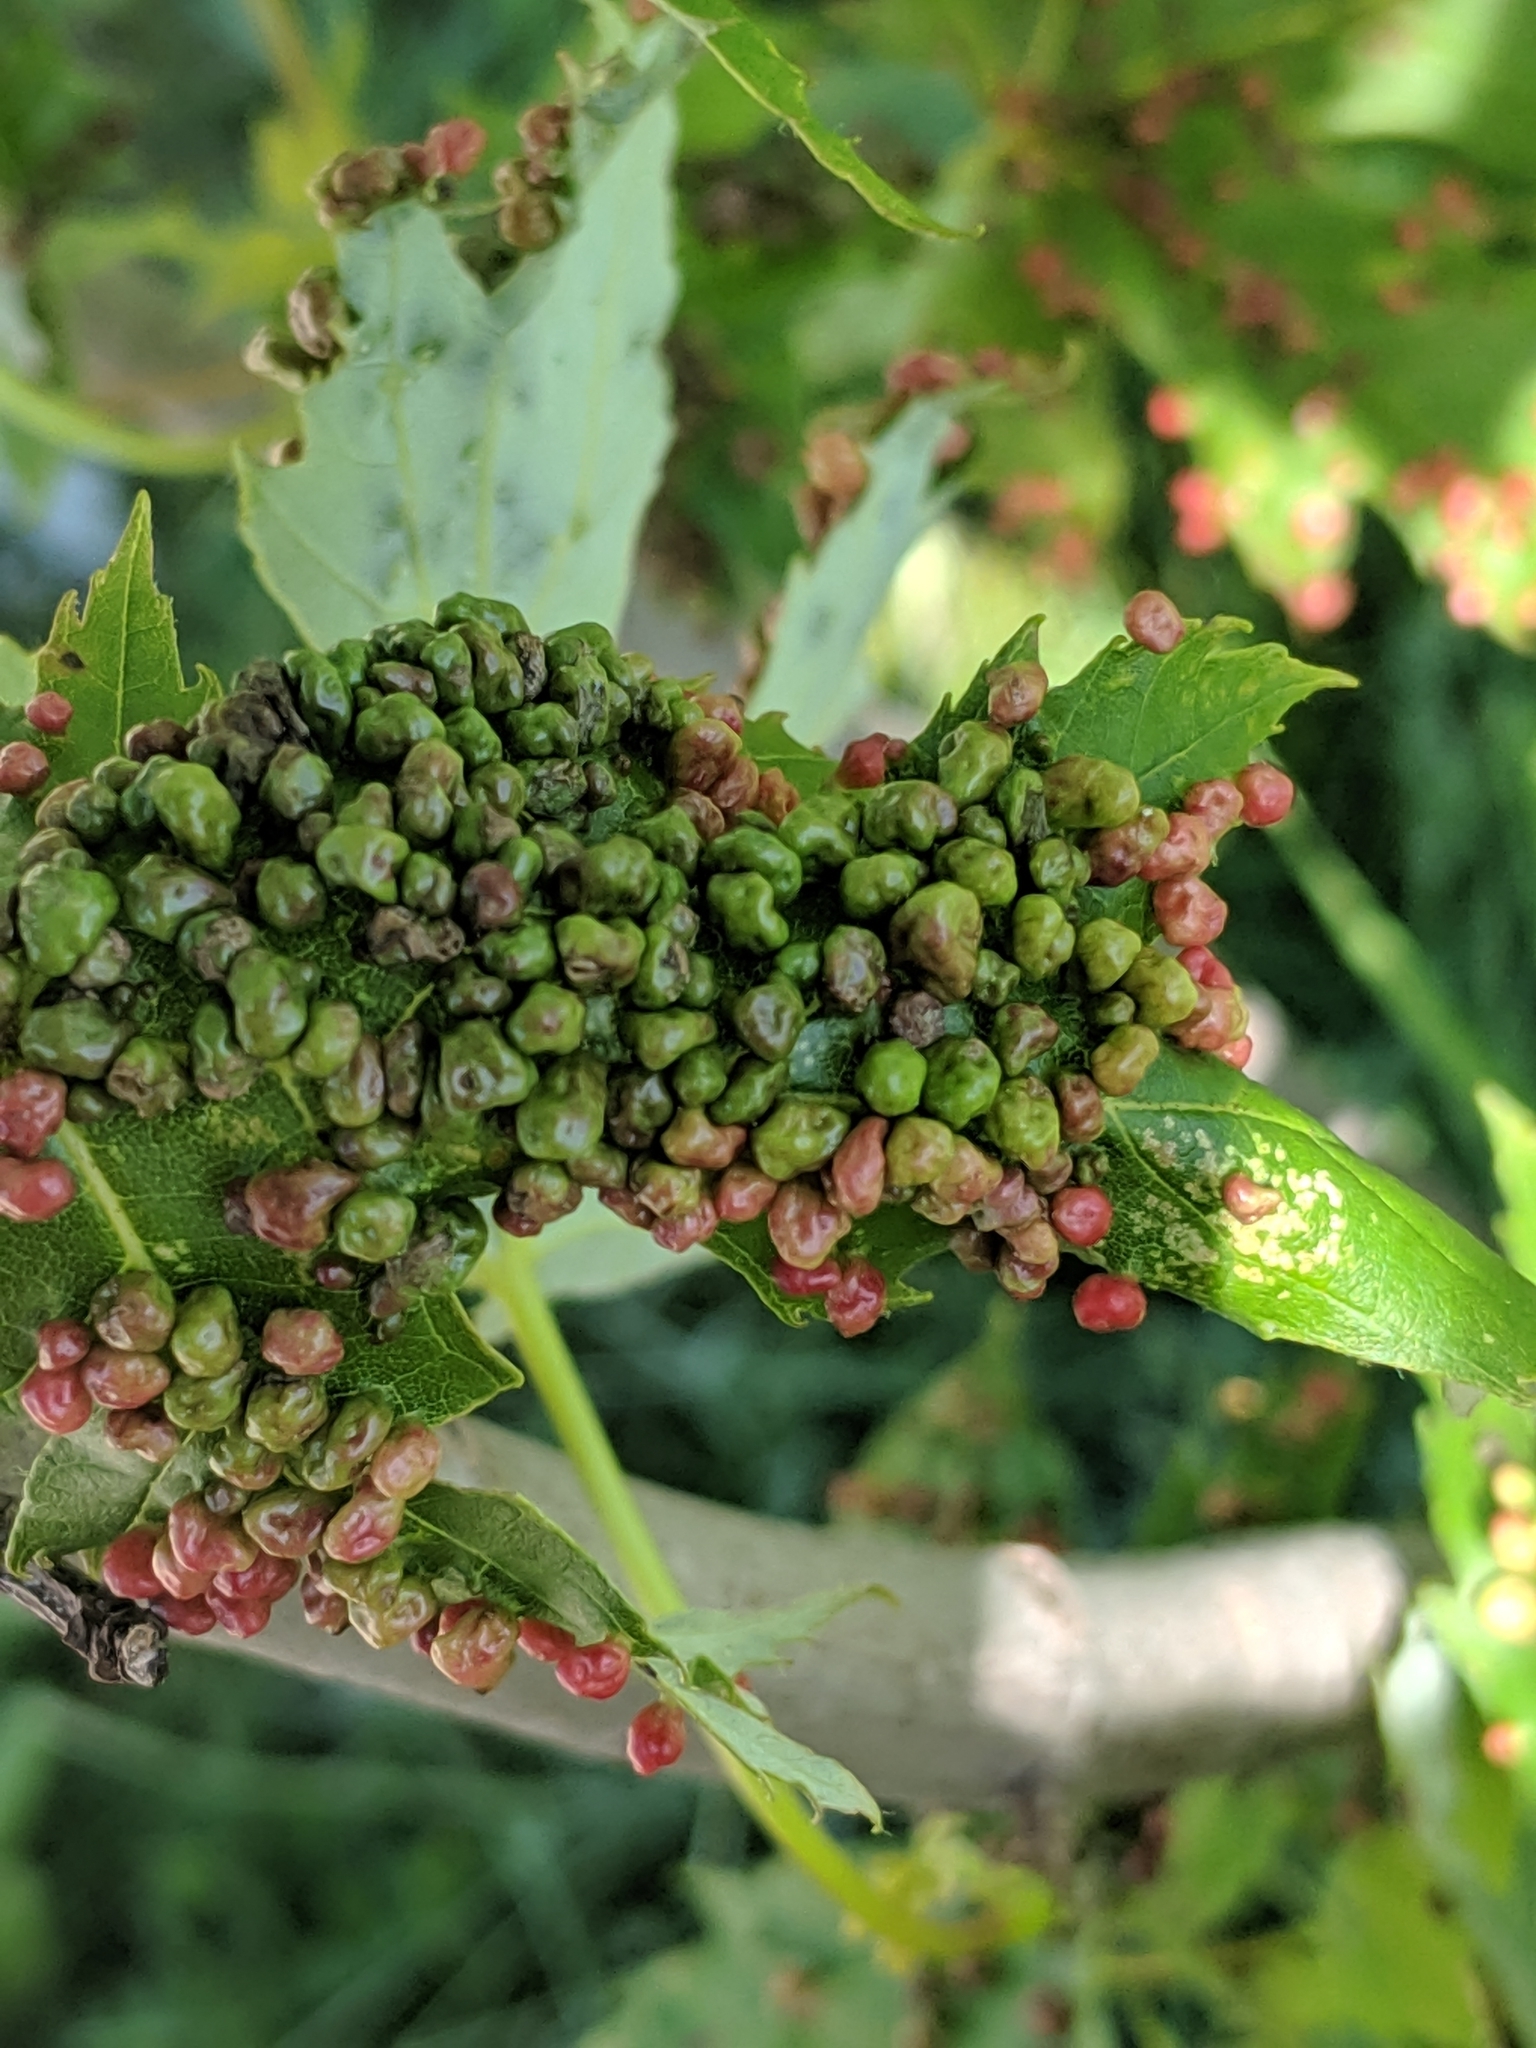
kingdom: Animalia
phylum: Arthropoda
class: Arachnida
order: Trombidiformes
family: Eriophyidae
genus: Vasates
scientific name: Vasates quadripedes
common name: Maple bladder gall mite
